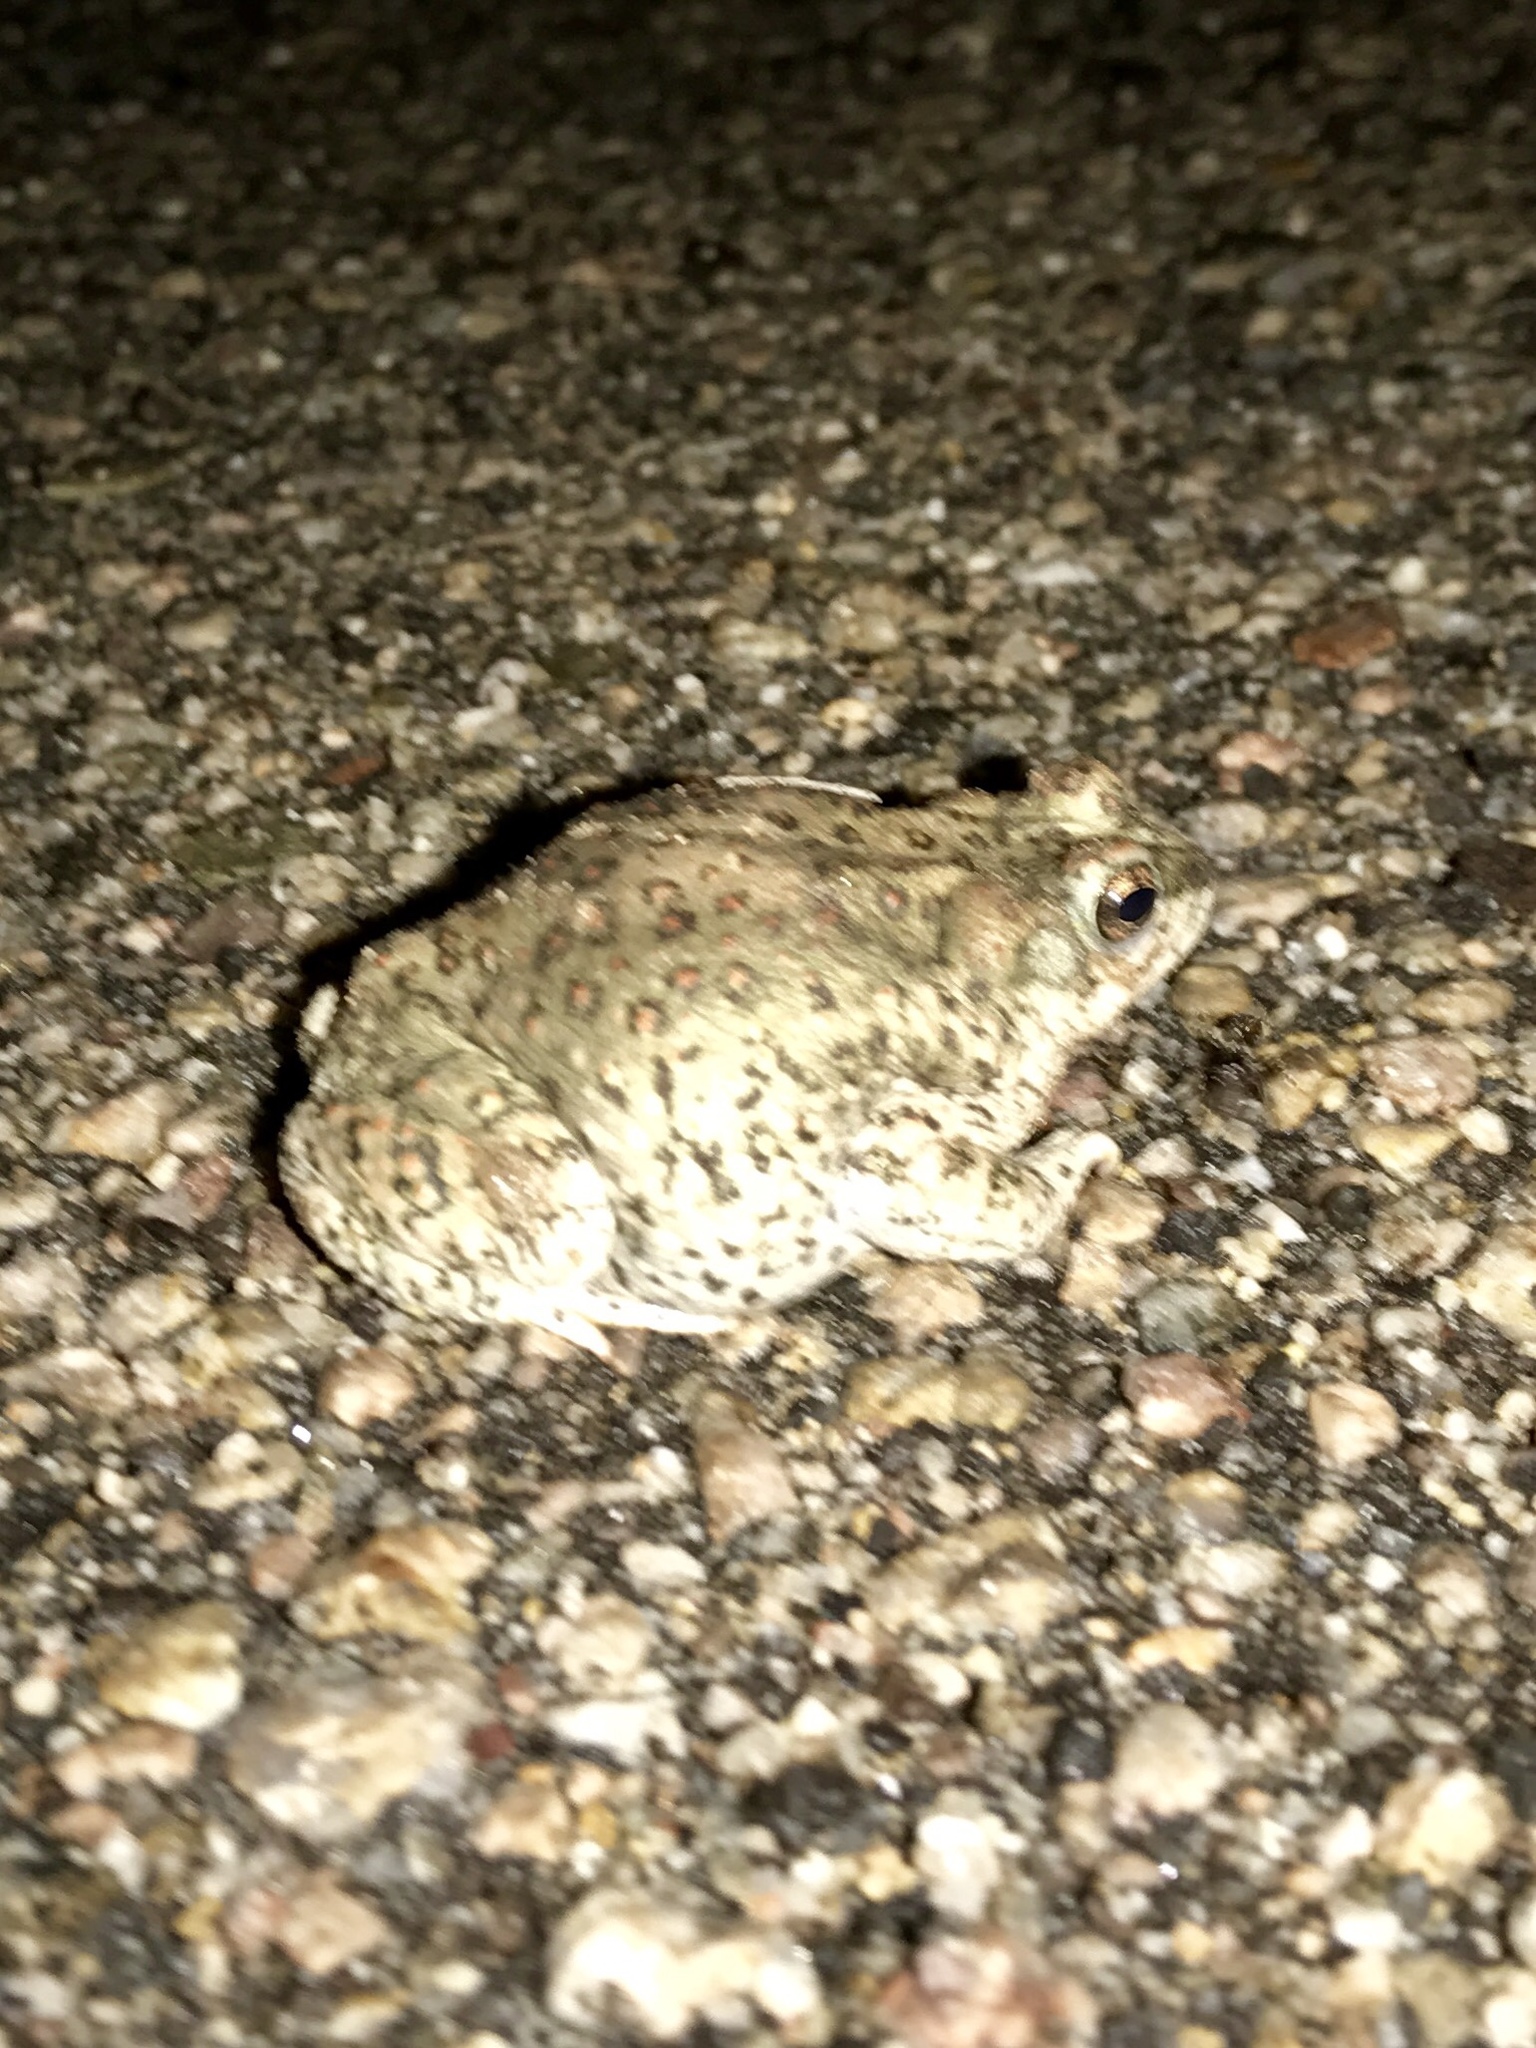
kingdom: Animalia
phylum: Chordata
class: Amphibia
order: Anura
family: Bufonidae
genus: Anaxyrus
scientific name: Anaxyrus punctatus
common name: Red-spotted toad
